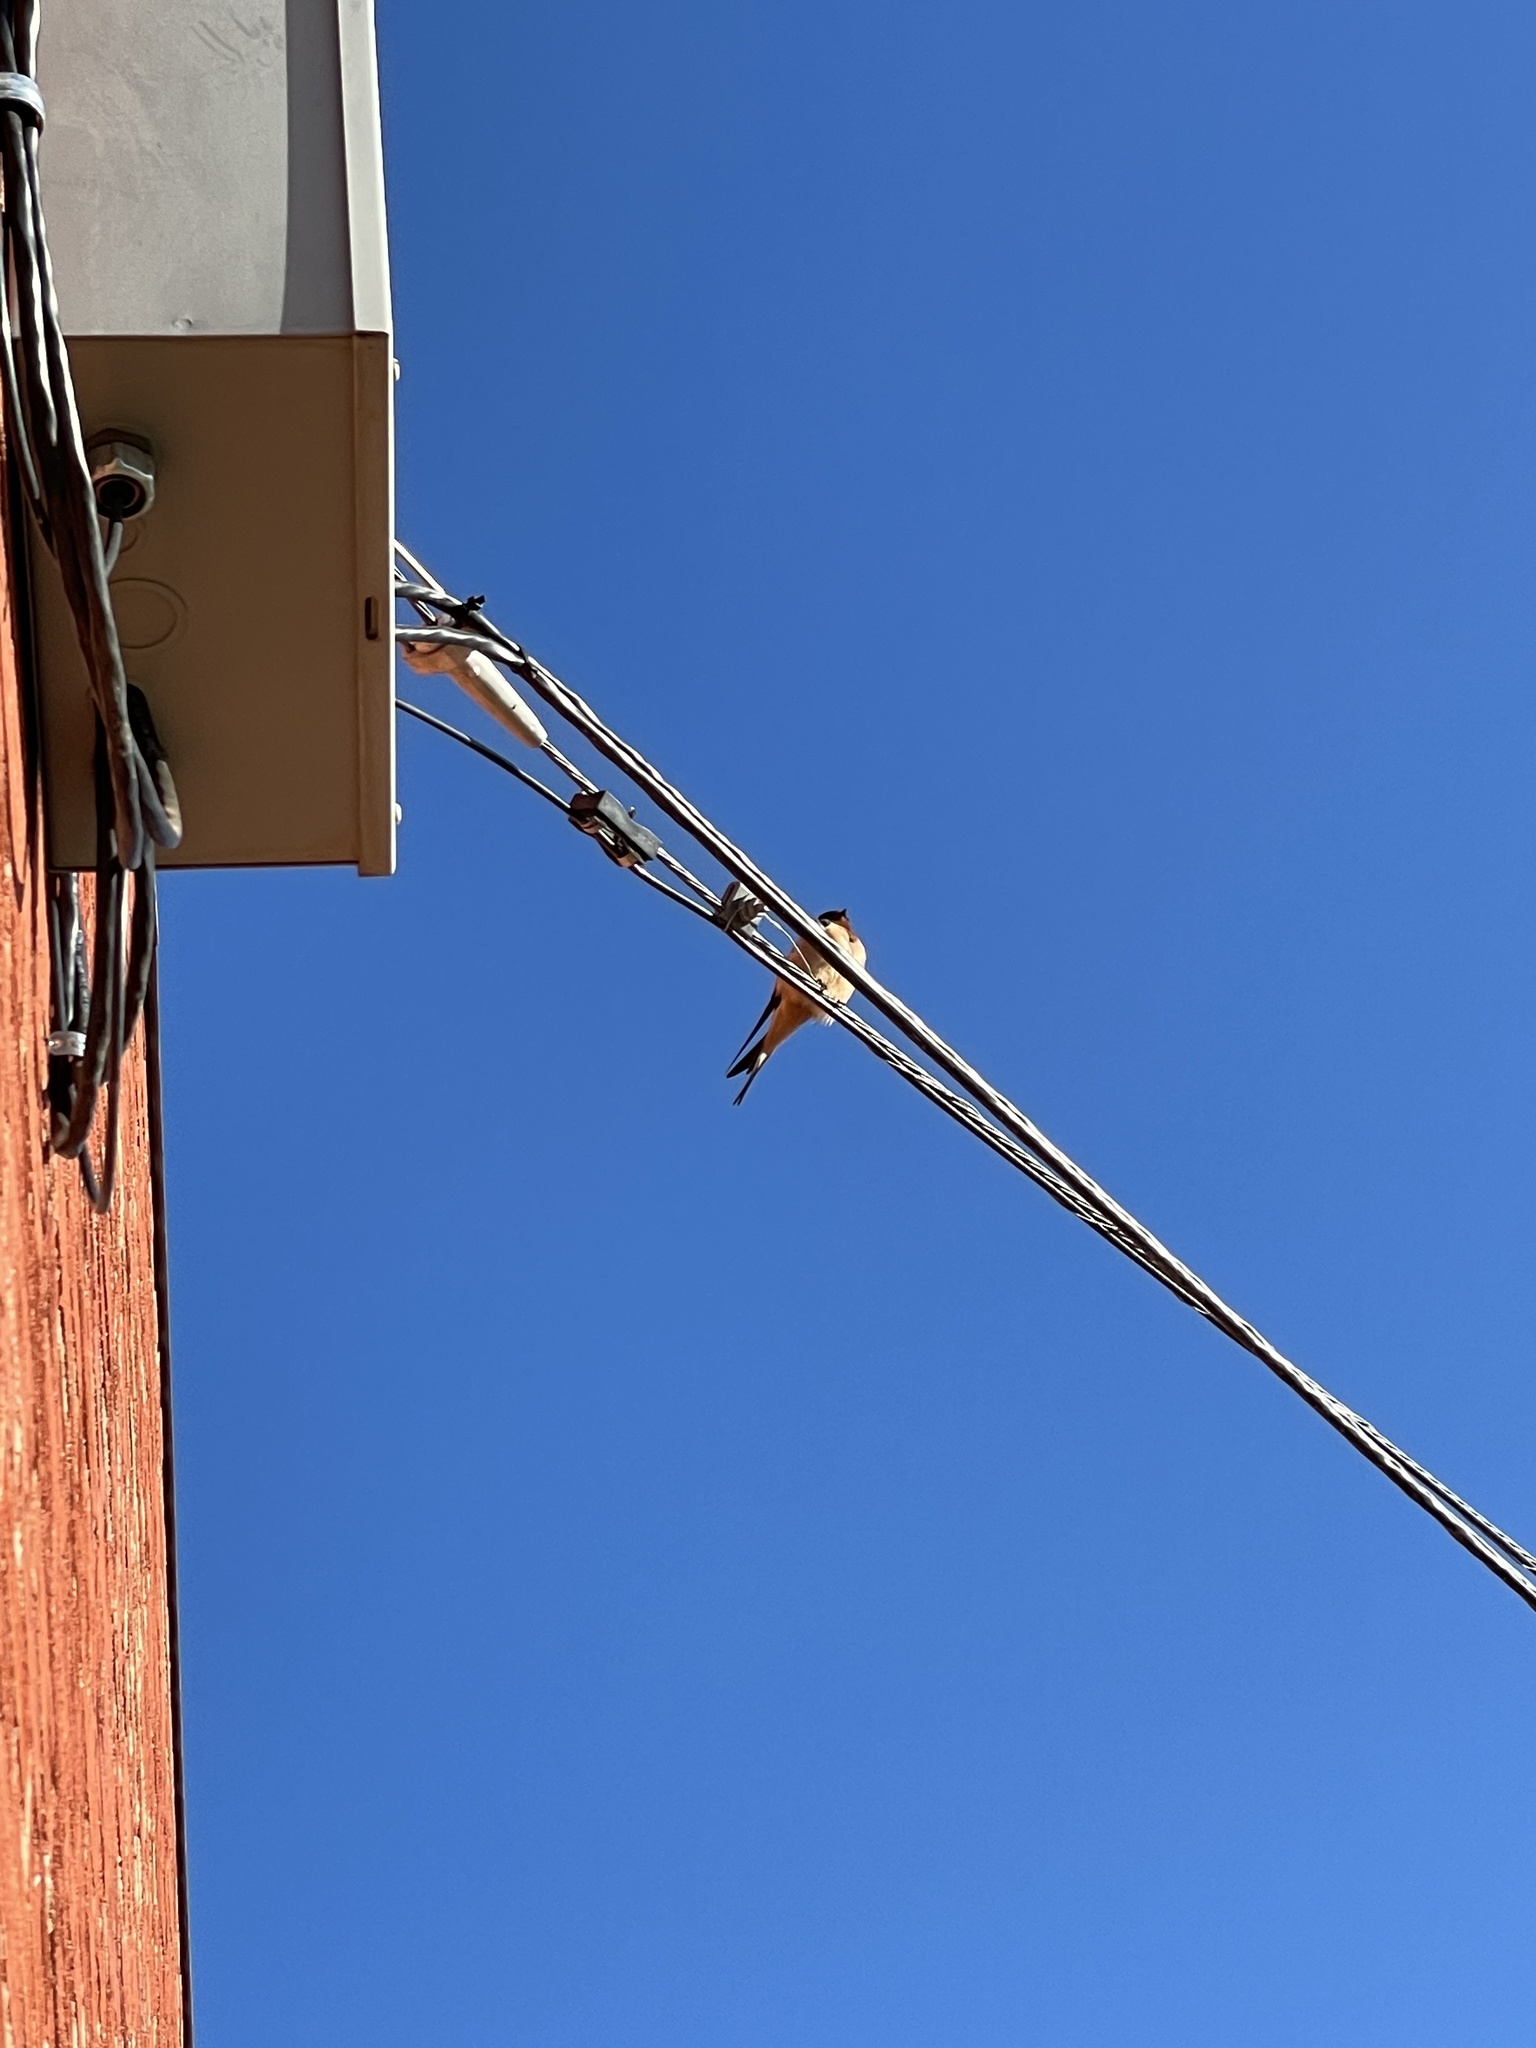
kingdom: Animalia
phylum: Chordata
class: Aves
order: Passeriformes
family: Hirundinidae
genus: Hirundo
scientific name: Hirundo rustica
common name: Barn swallow
